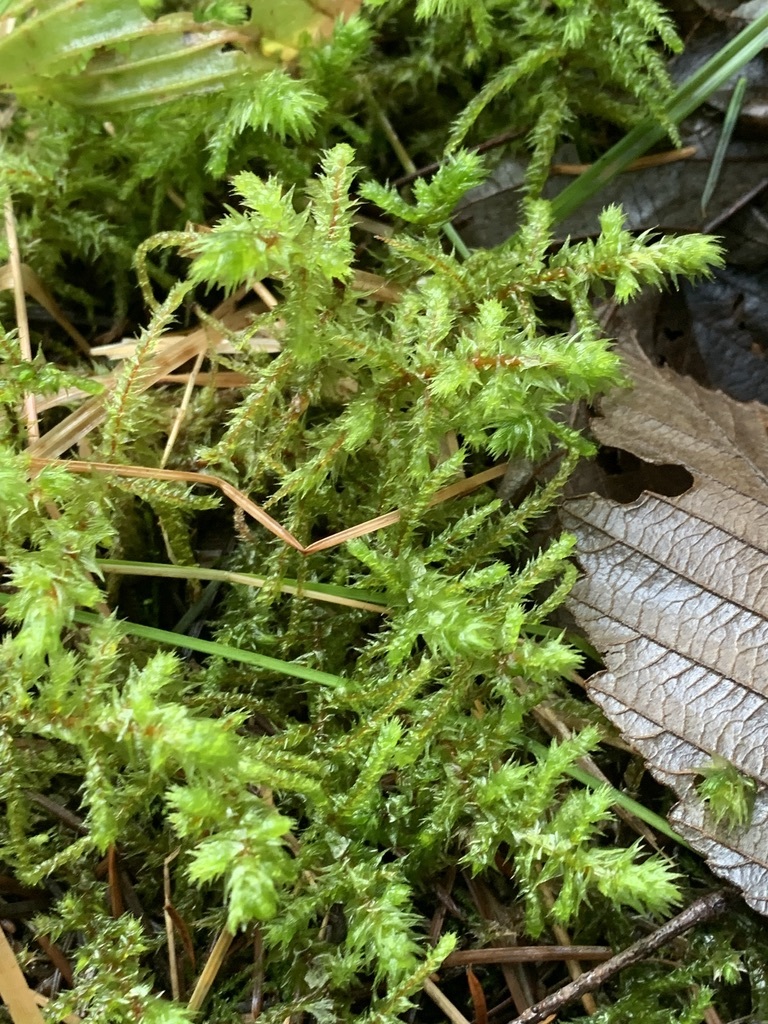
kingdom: Plantae
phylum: Bryophyta
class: Bryopsida
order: Hypnales
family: Hylocomiaceae
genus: Hylocomiadelphus
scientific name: Hylocomiadelphus triquetrus
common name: Rough goose neck moss
